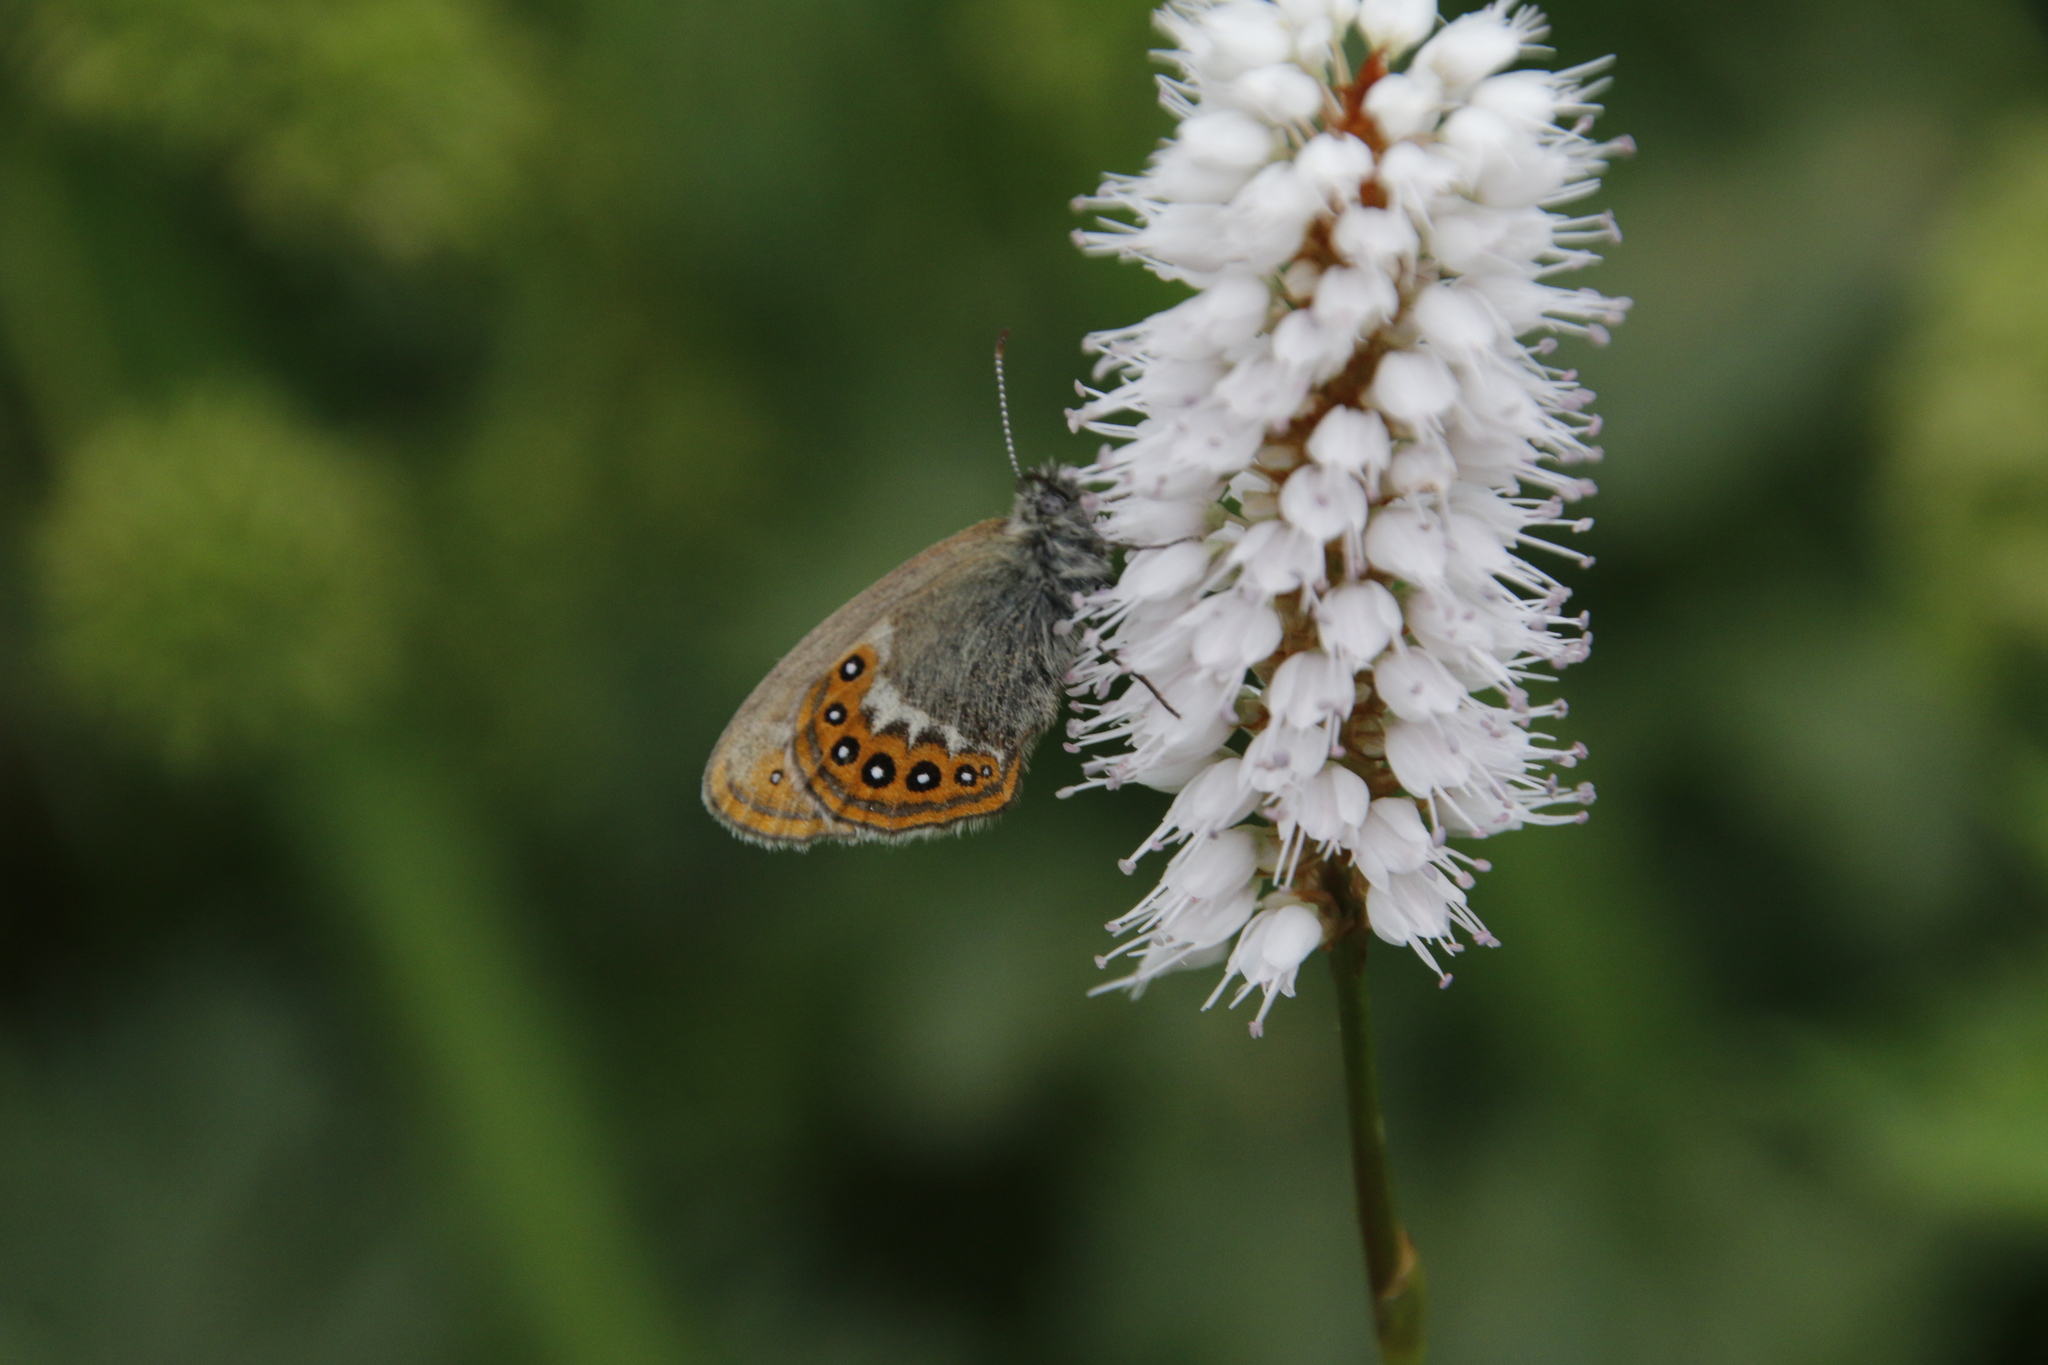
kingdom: Animalia
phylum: Arthropoda
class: Insecta
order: Lepidoptera
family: Nymphalidae
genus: Coenonympha
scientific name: Coenonympha hero
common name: Scarce heath
